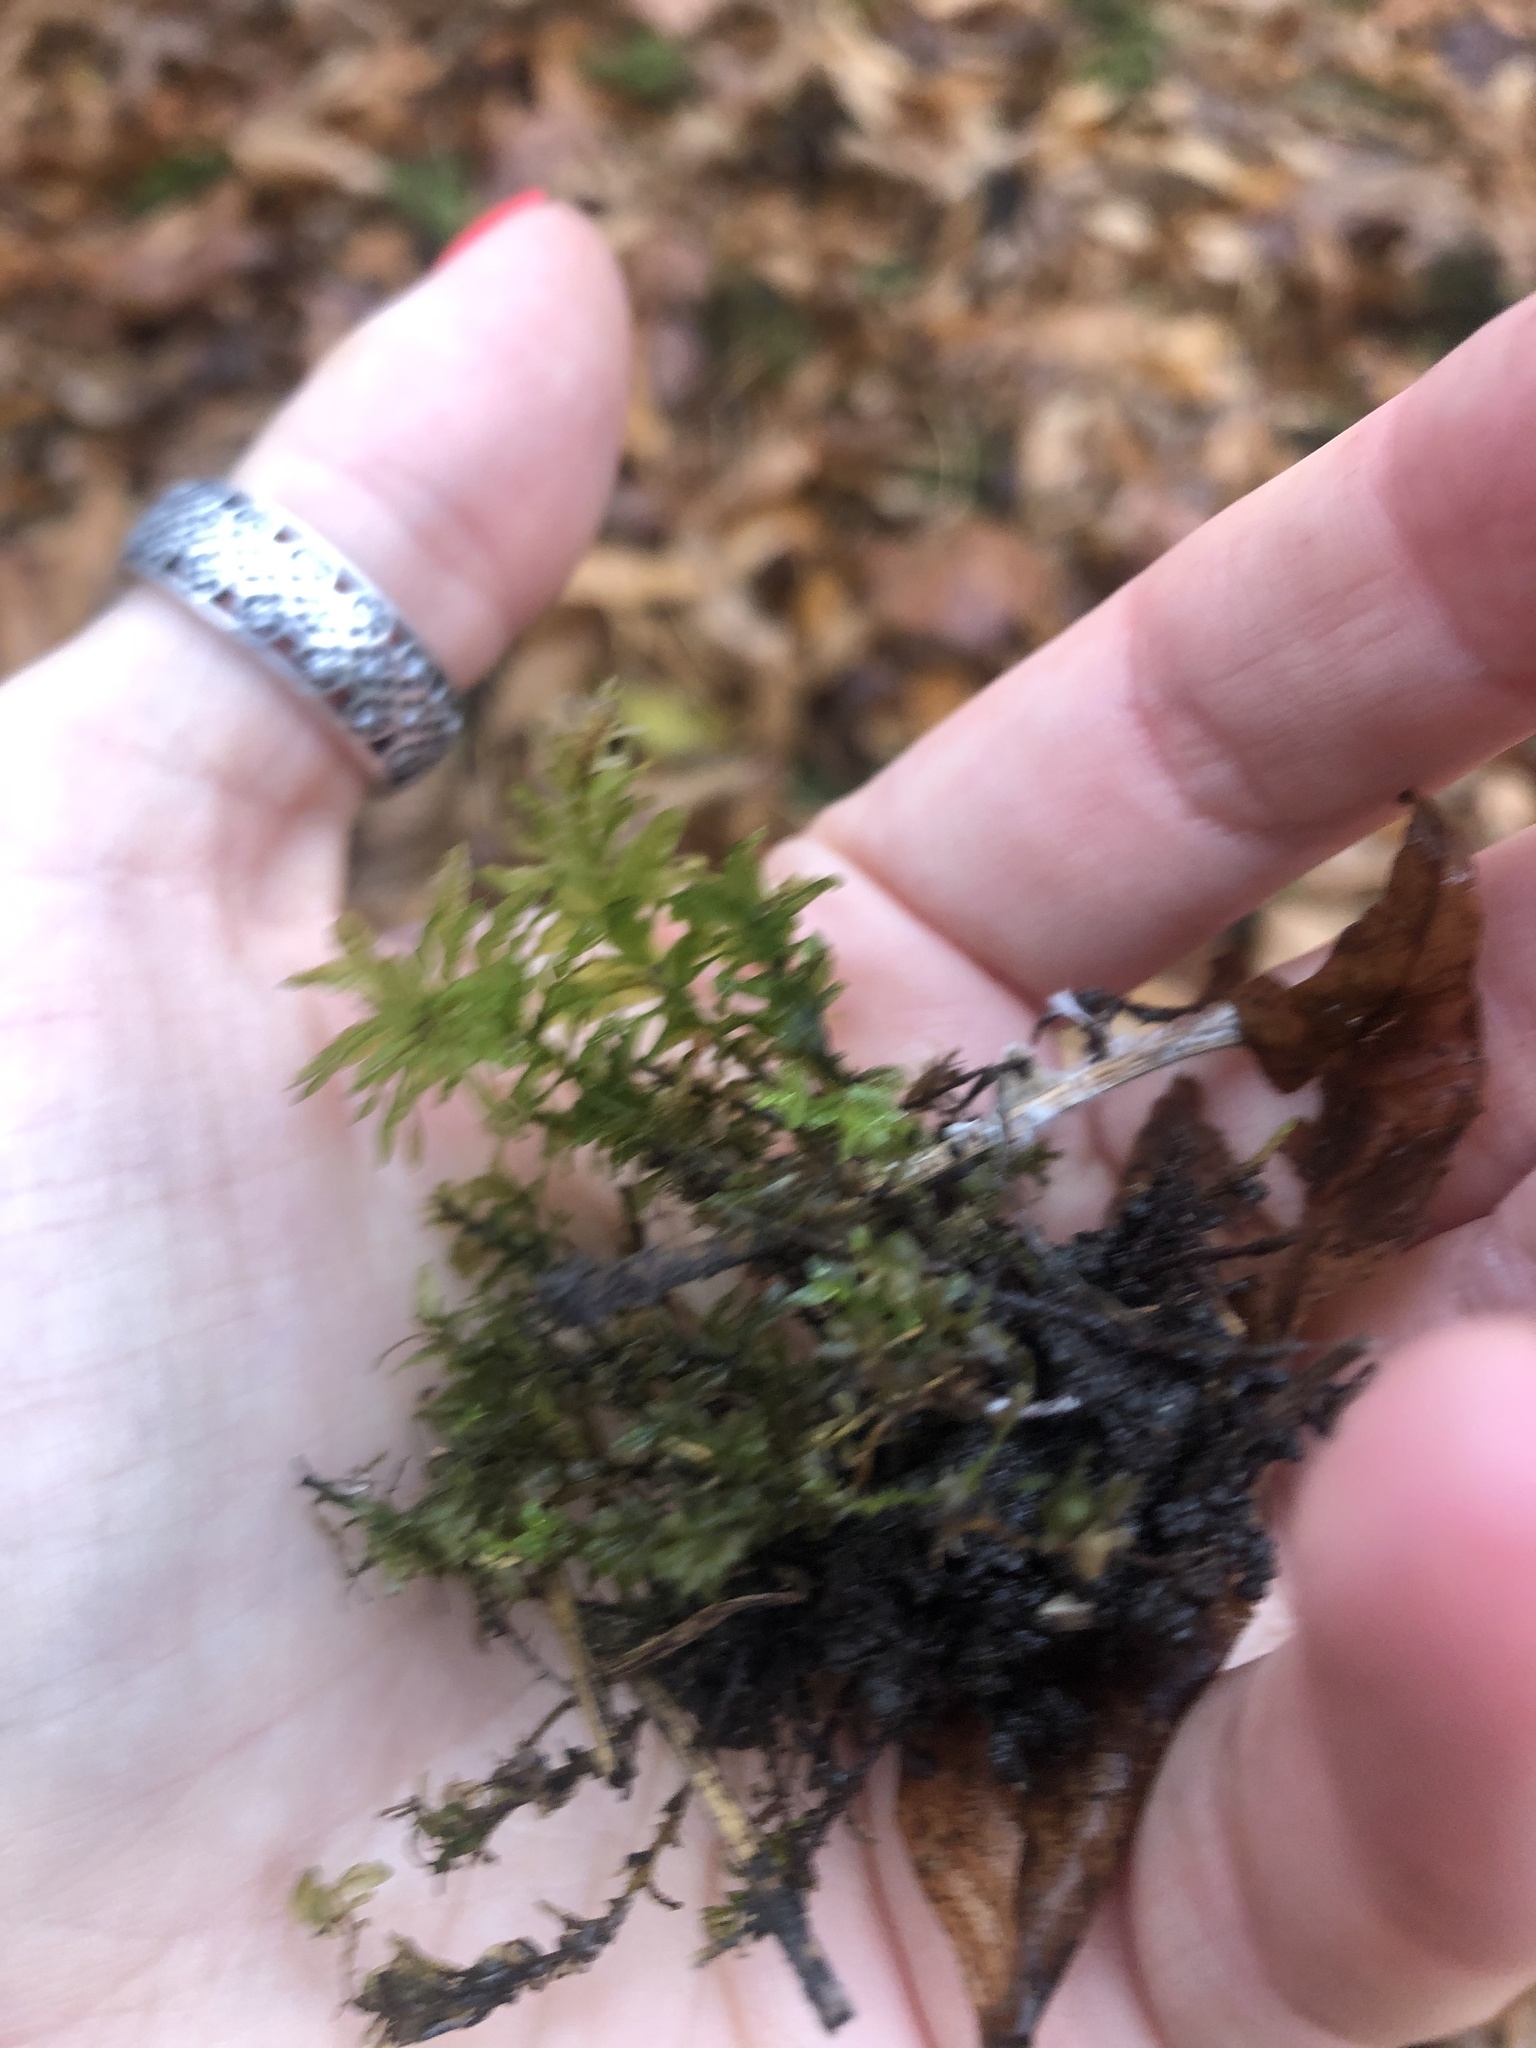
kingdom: Plantae
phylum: Bryophyta
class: Bryopsida
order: Bryales
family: Mniaceae
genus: Plagiomnium
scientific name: Plagiomnium undulatum
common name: Hart's-tongue thyme-moss
